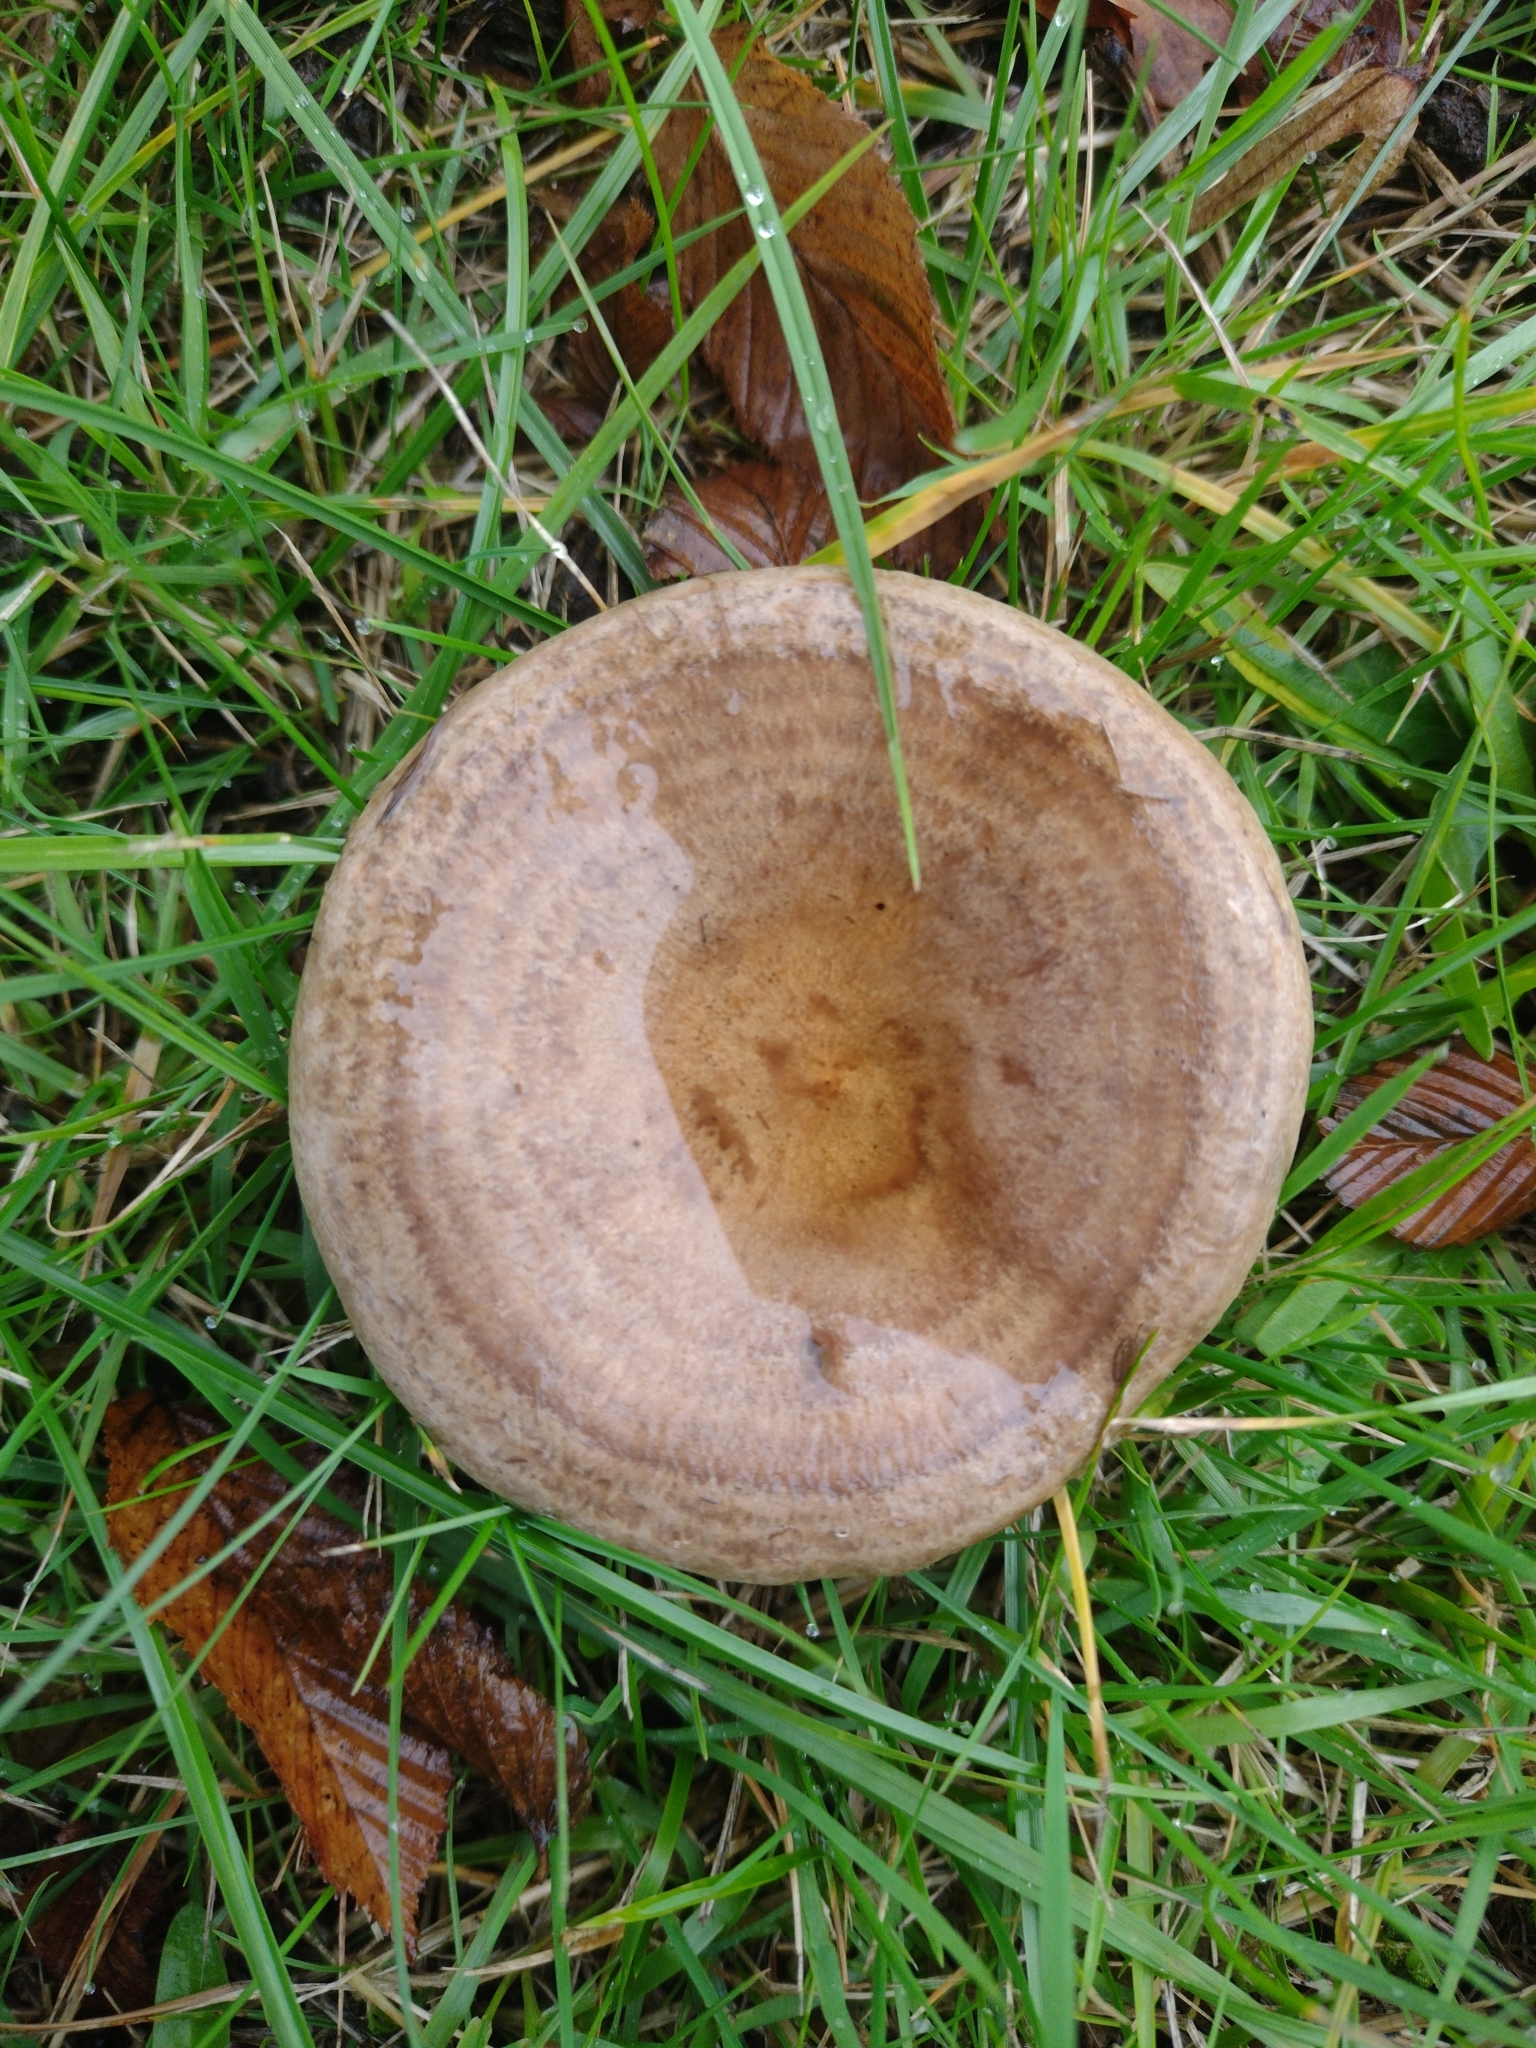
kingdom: Fungi
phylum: Basidiomycota
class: Agaricomycetes
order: Russulales
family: Russulaceae
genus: Lactarius
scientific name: Lactarius circellatus
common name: Circled milkcap
